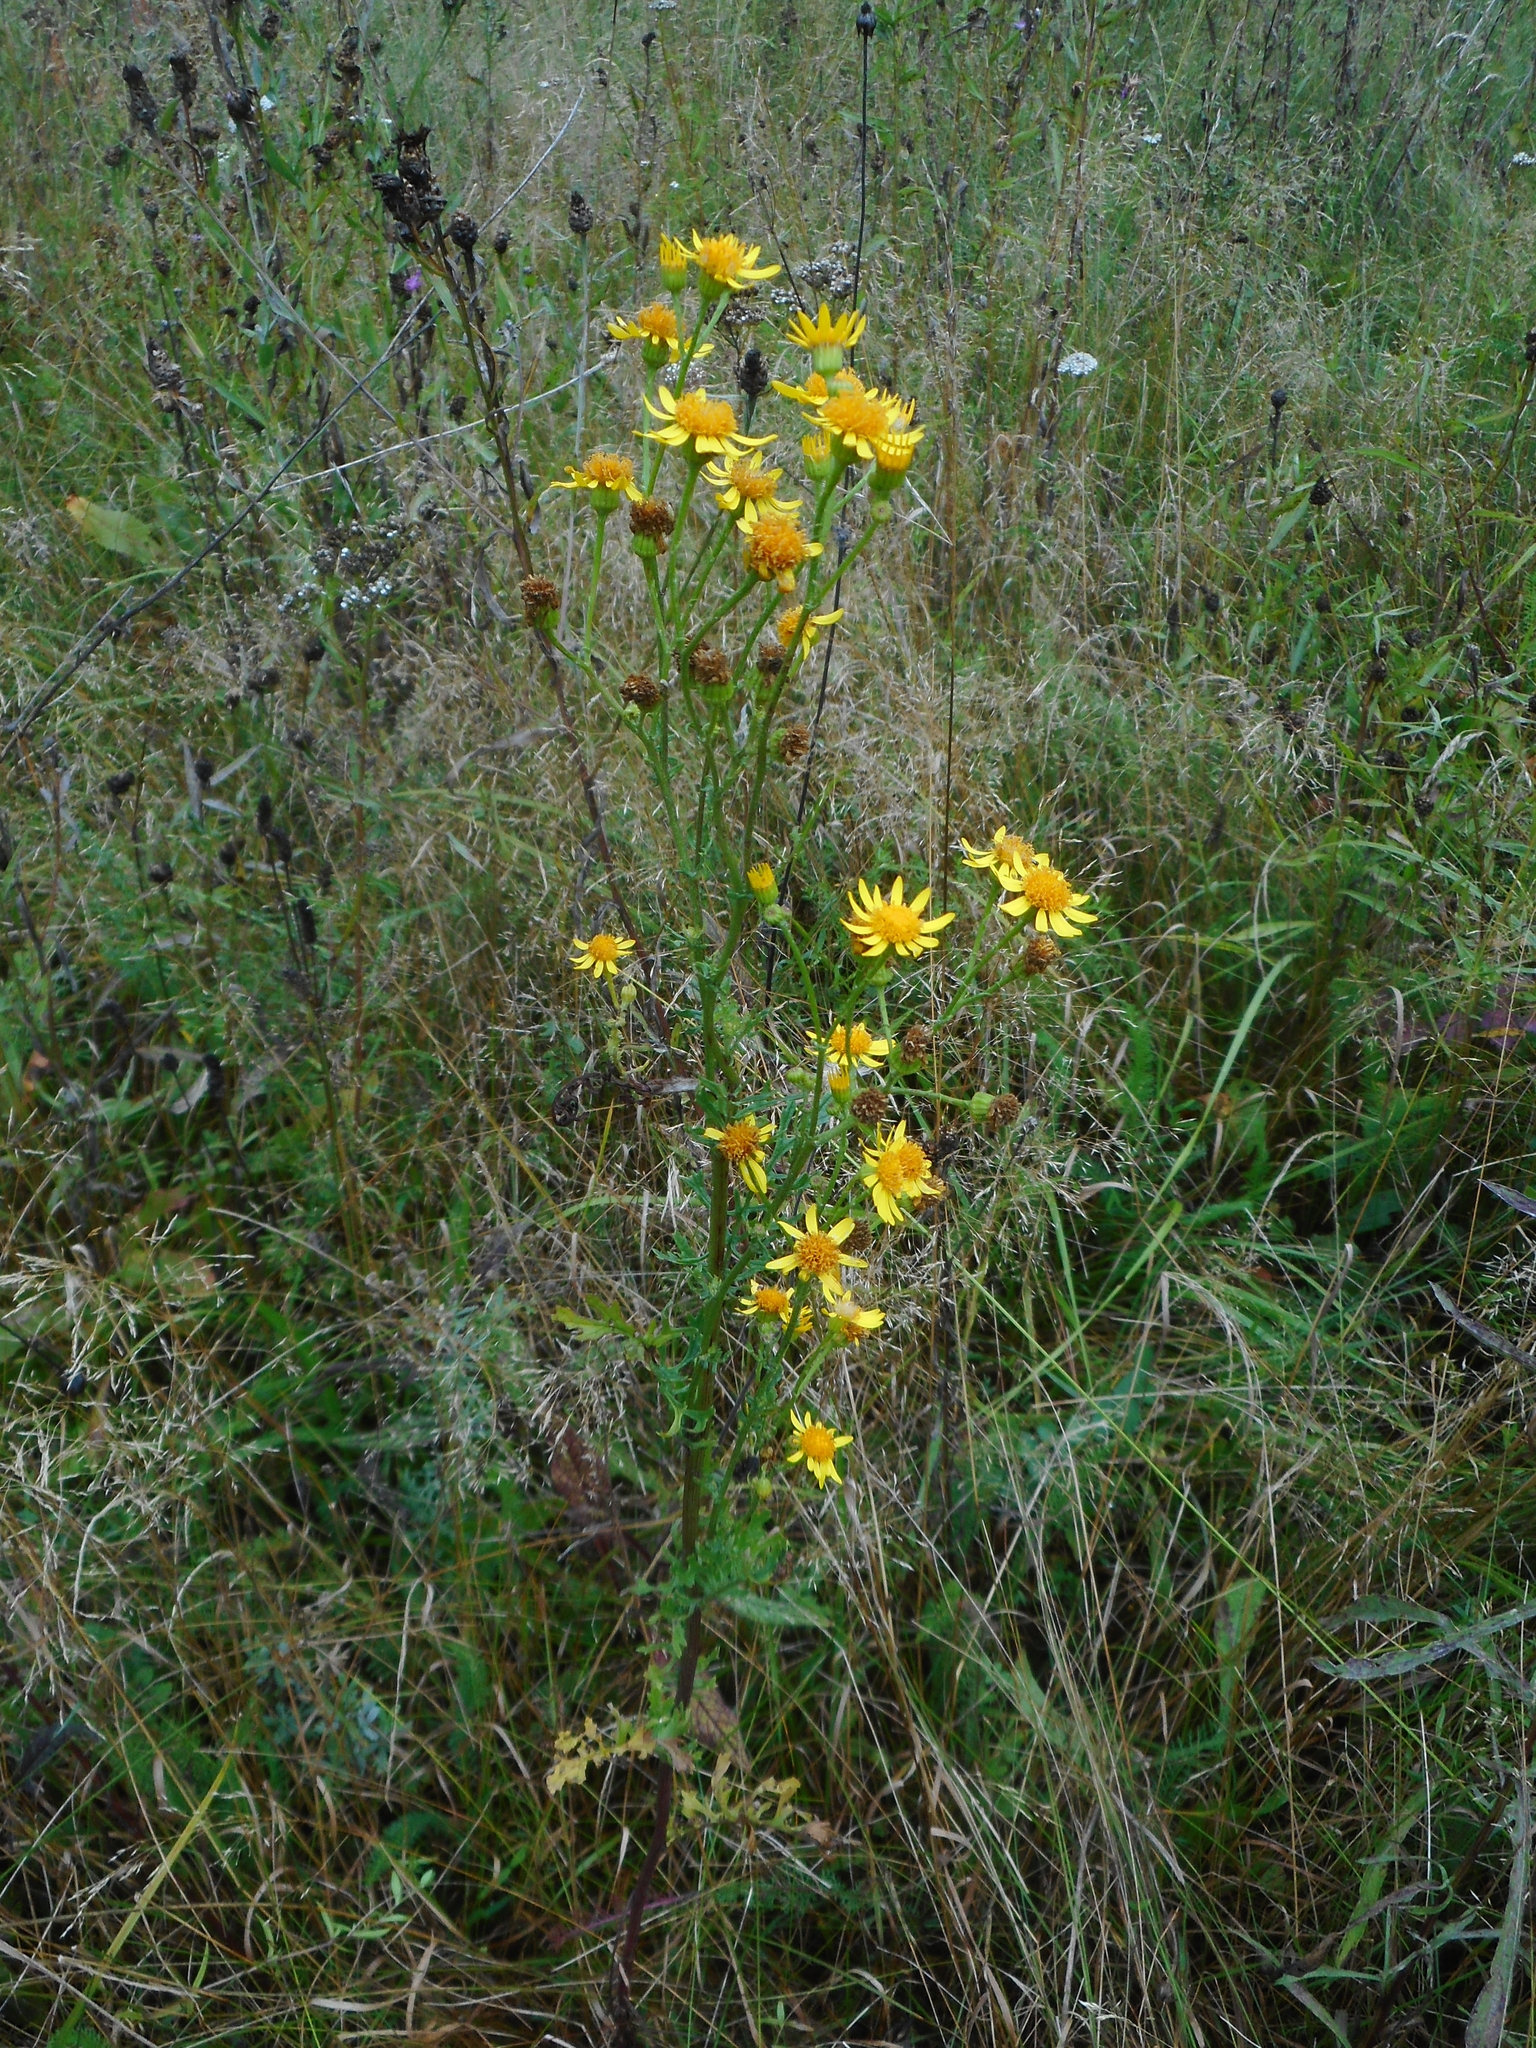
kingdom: Plantae
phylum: Tracheophyta
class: Magnoliopsida
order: Asterales
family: Asteraceae
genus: Jacobaea
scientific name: Jacobaea vulgaris
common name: Stinking willie
